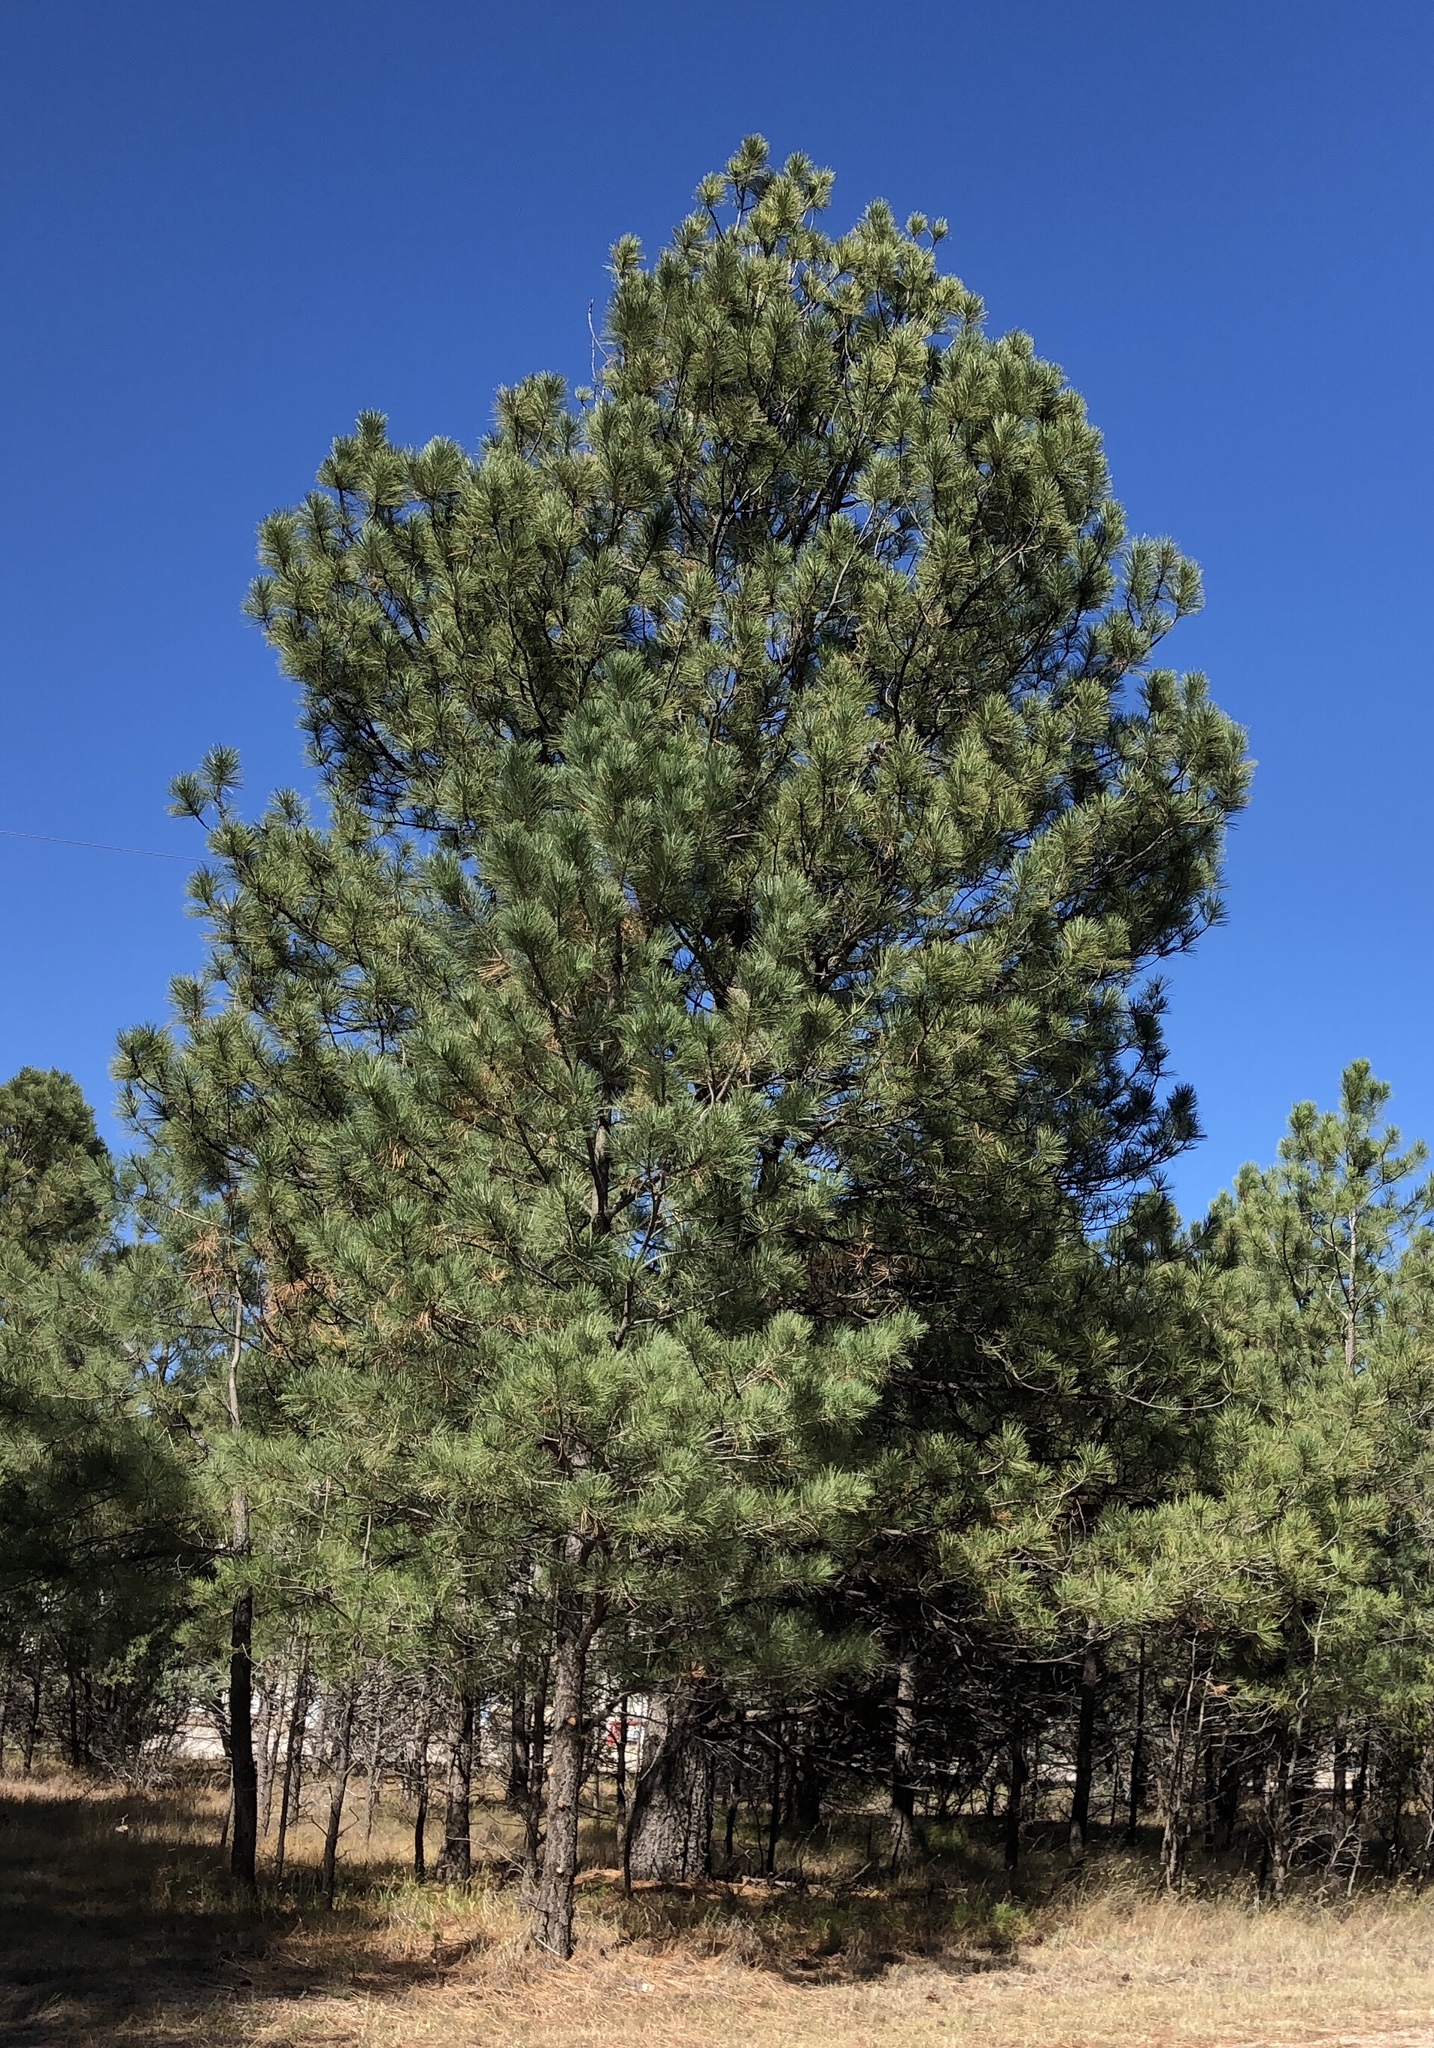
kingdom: Plantae
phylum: Tracheophyta
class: Pinopsida
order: Pinales
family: Pinaceae
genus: Pinus
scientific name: Pinus ponderosa
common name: Western yellow-pine
